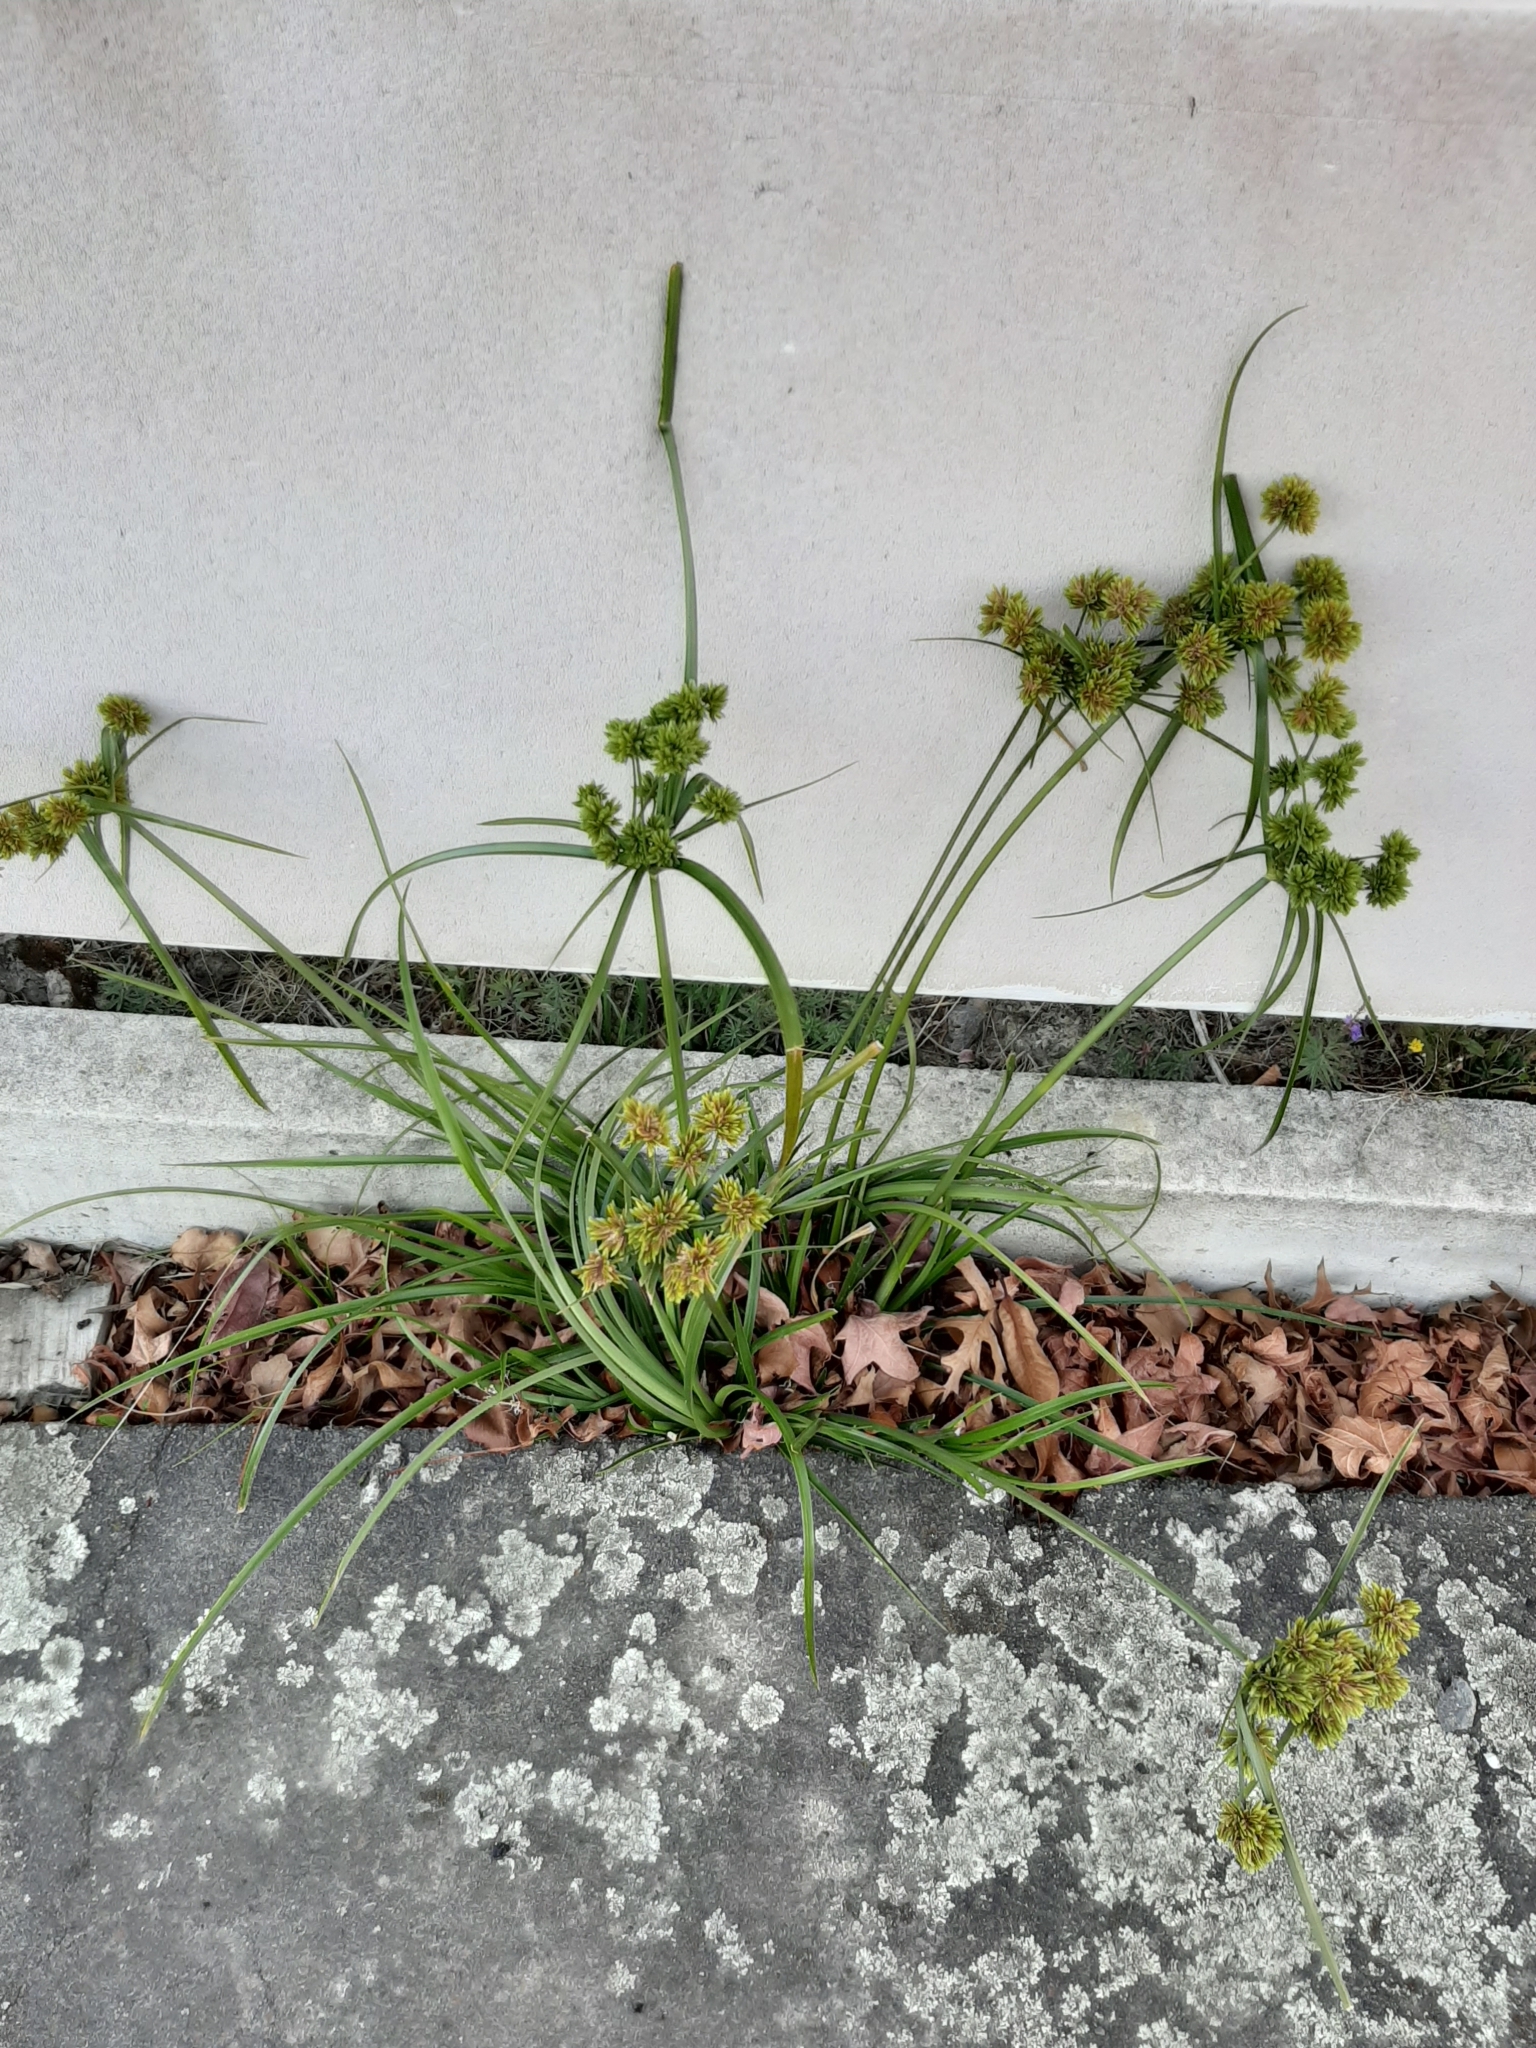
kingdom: Plantae
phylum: Tracheophyta
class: Liliopsida
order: Poales
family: Cyperaceae
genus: Cyperus
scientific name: Cyperus eragrostis
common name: Tall flatsedge
